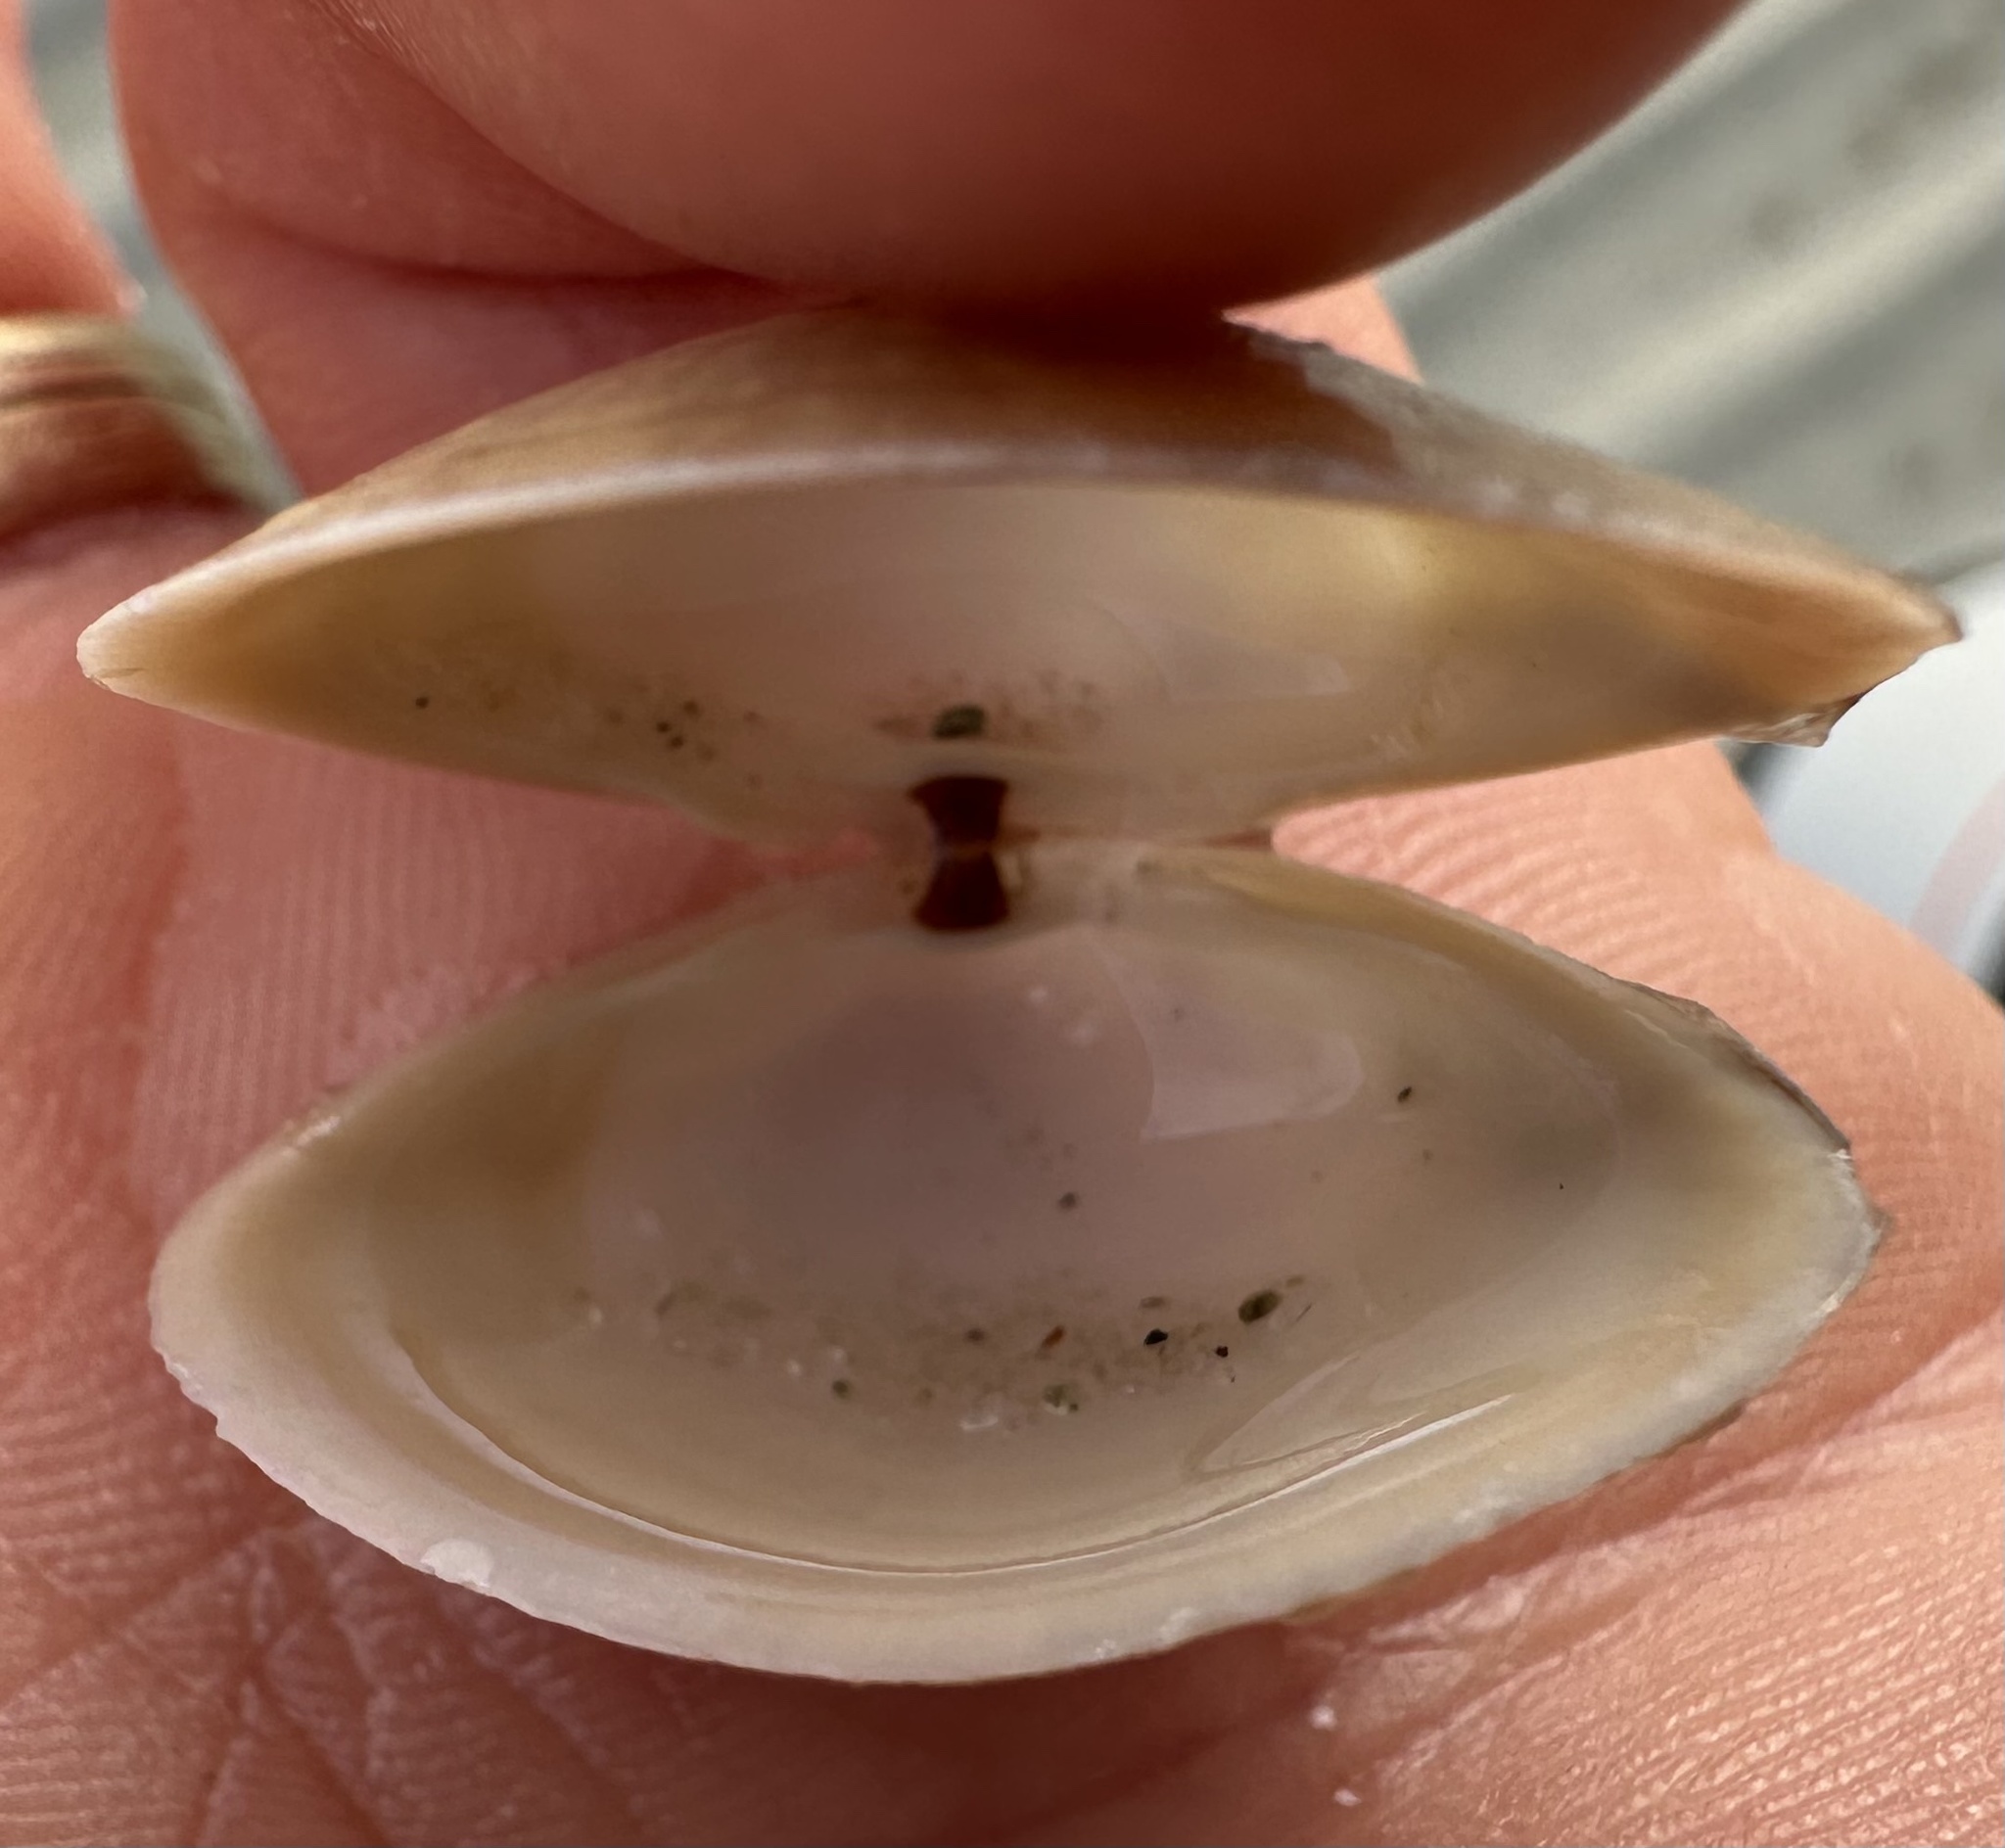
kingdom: Animalia
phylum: Mollusca
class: Bivalvia
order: Venerida
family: Mactridae
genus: Spisula
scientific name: Spisula solidissima
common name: Atlantic surf clam
